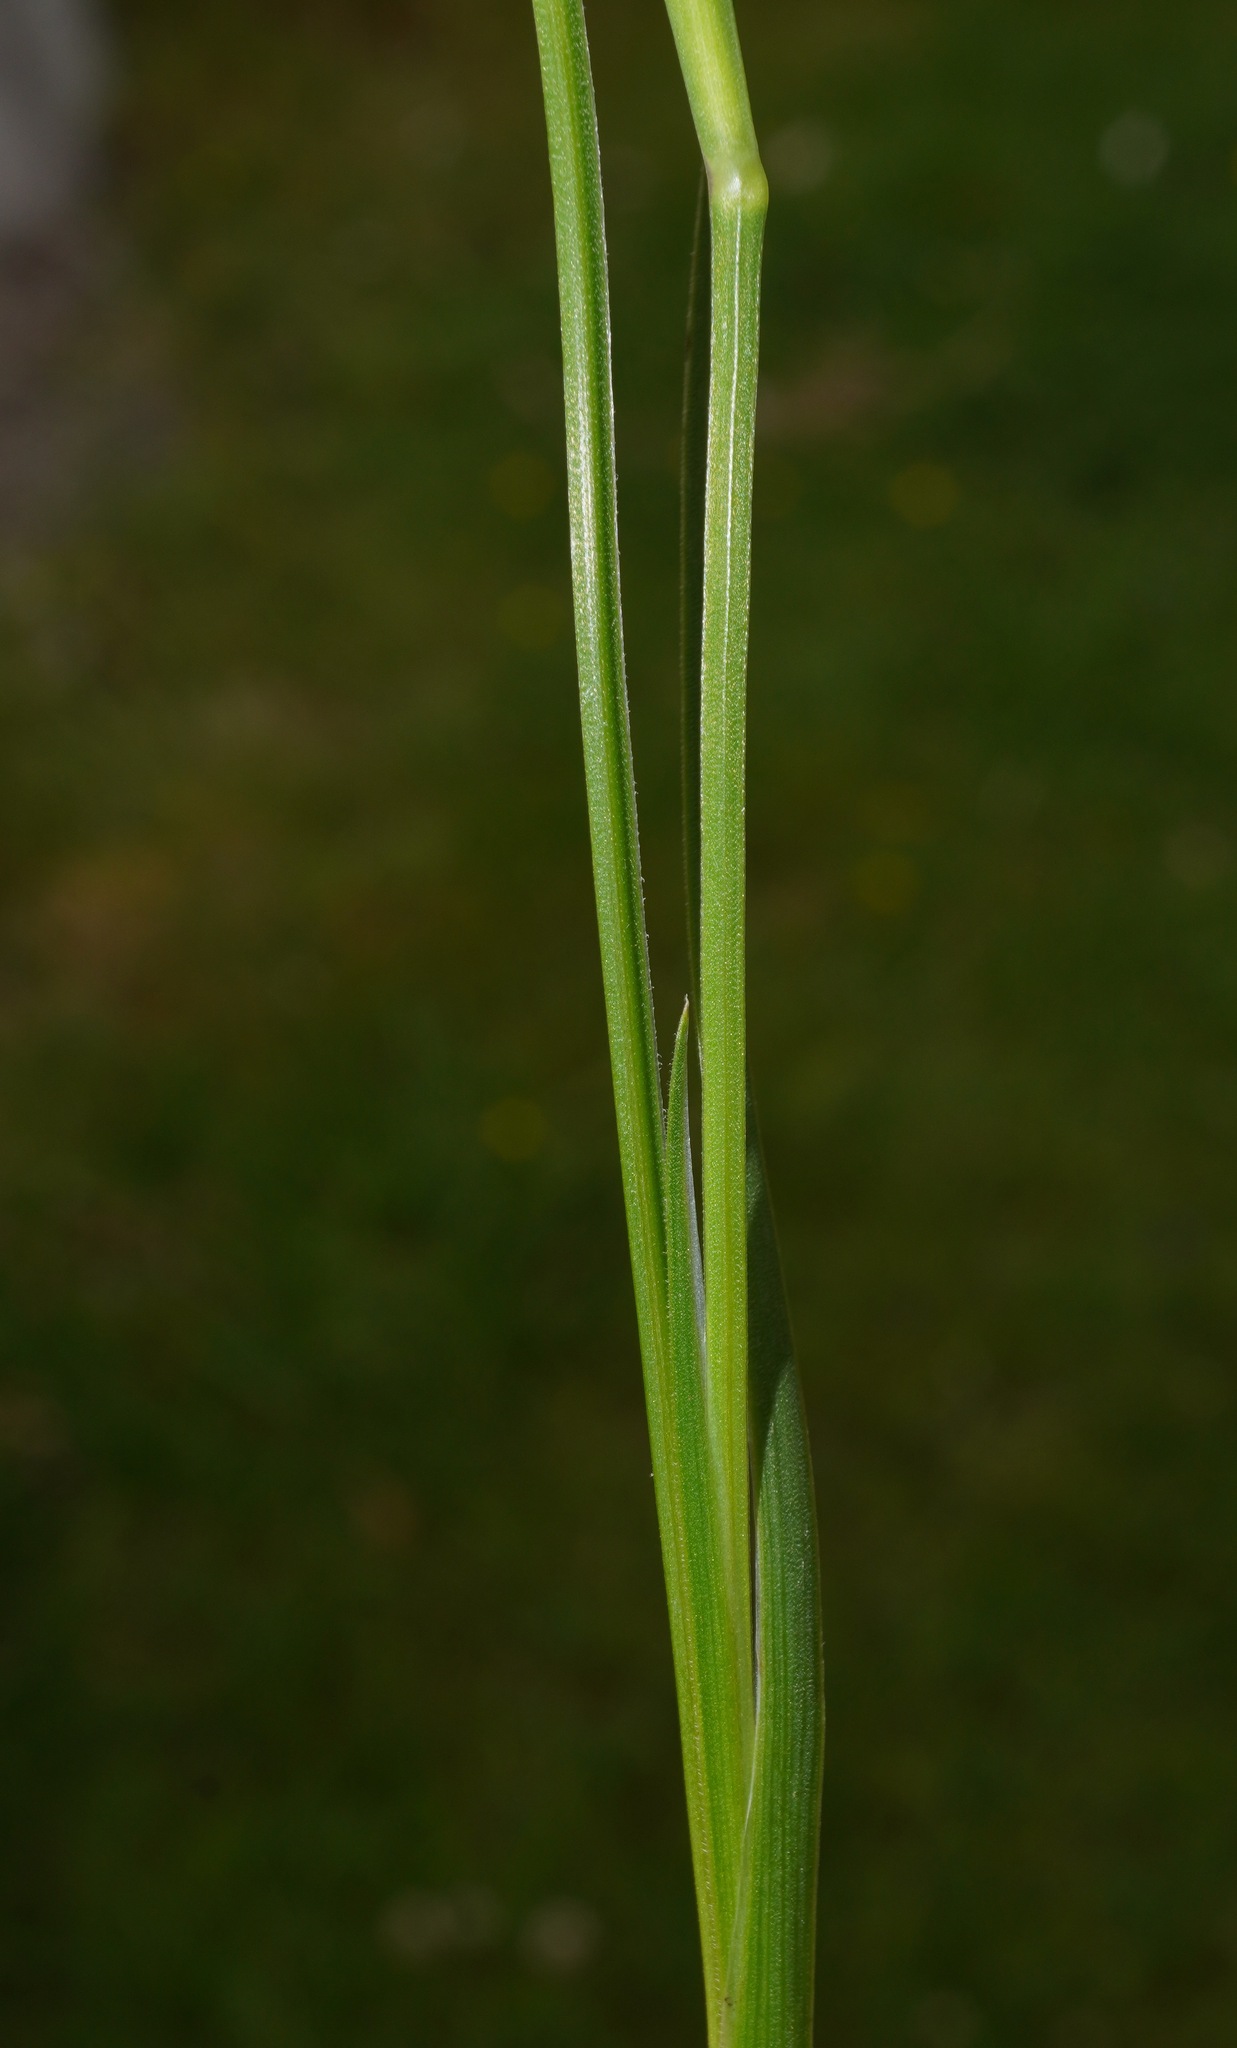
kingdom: Plantae
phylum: Tracheophyta
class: Liliopsida
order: Asparagales
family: Iridaceae
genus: Sisyrinchium
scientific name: Sisyrinchium micranthum
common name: Bermuda pigroot
